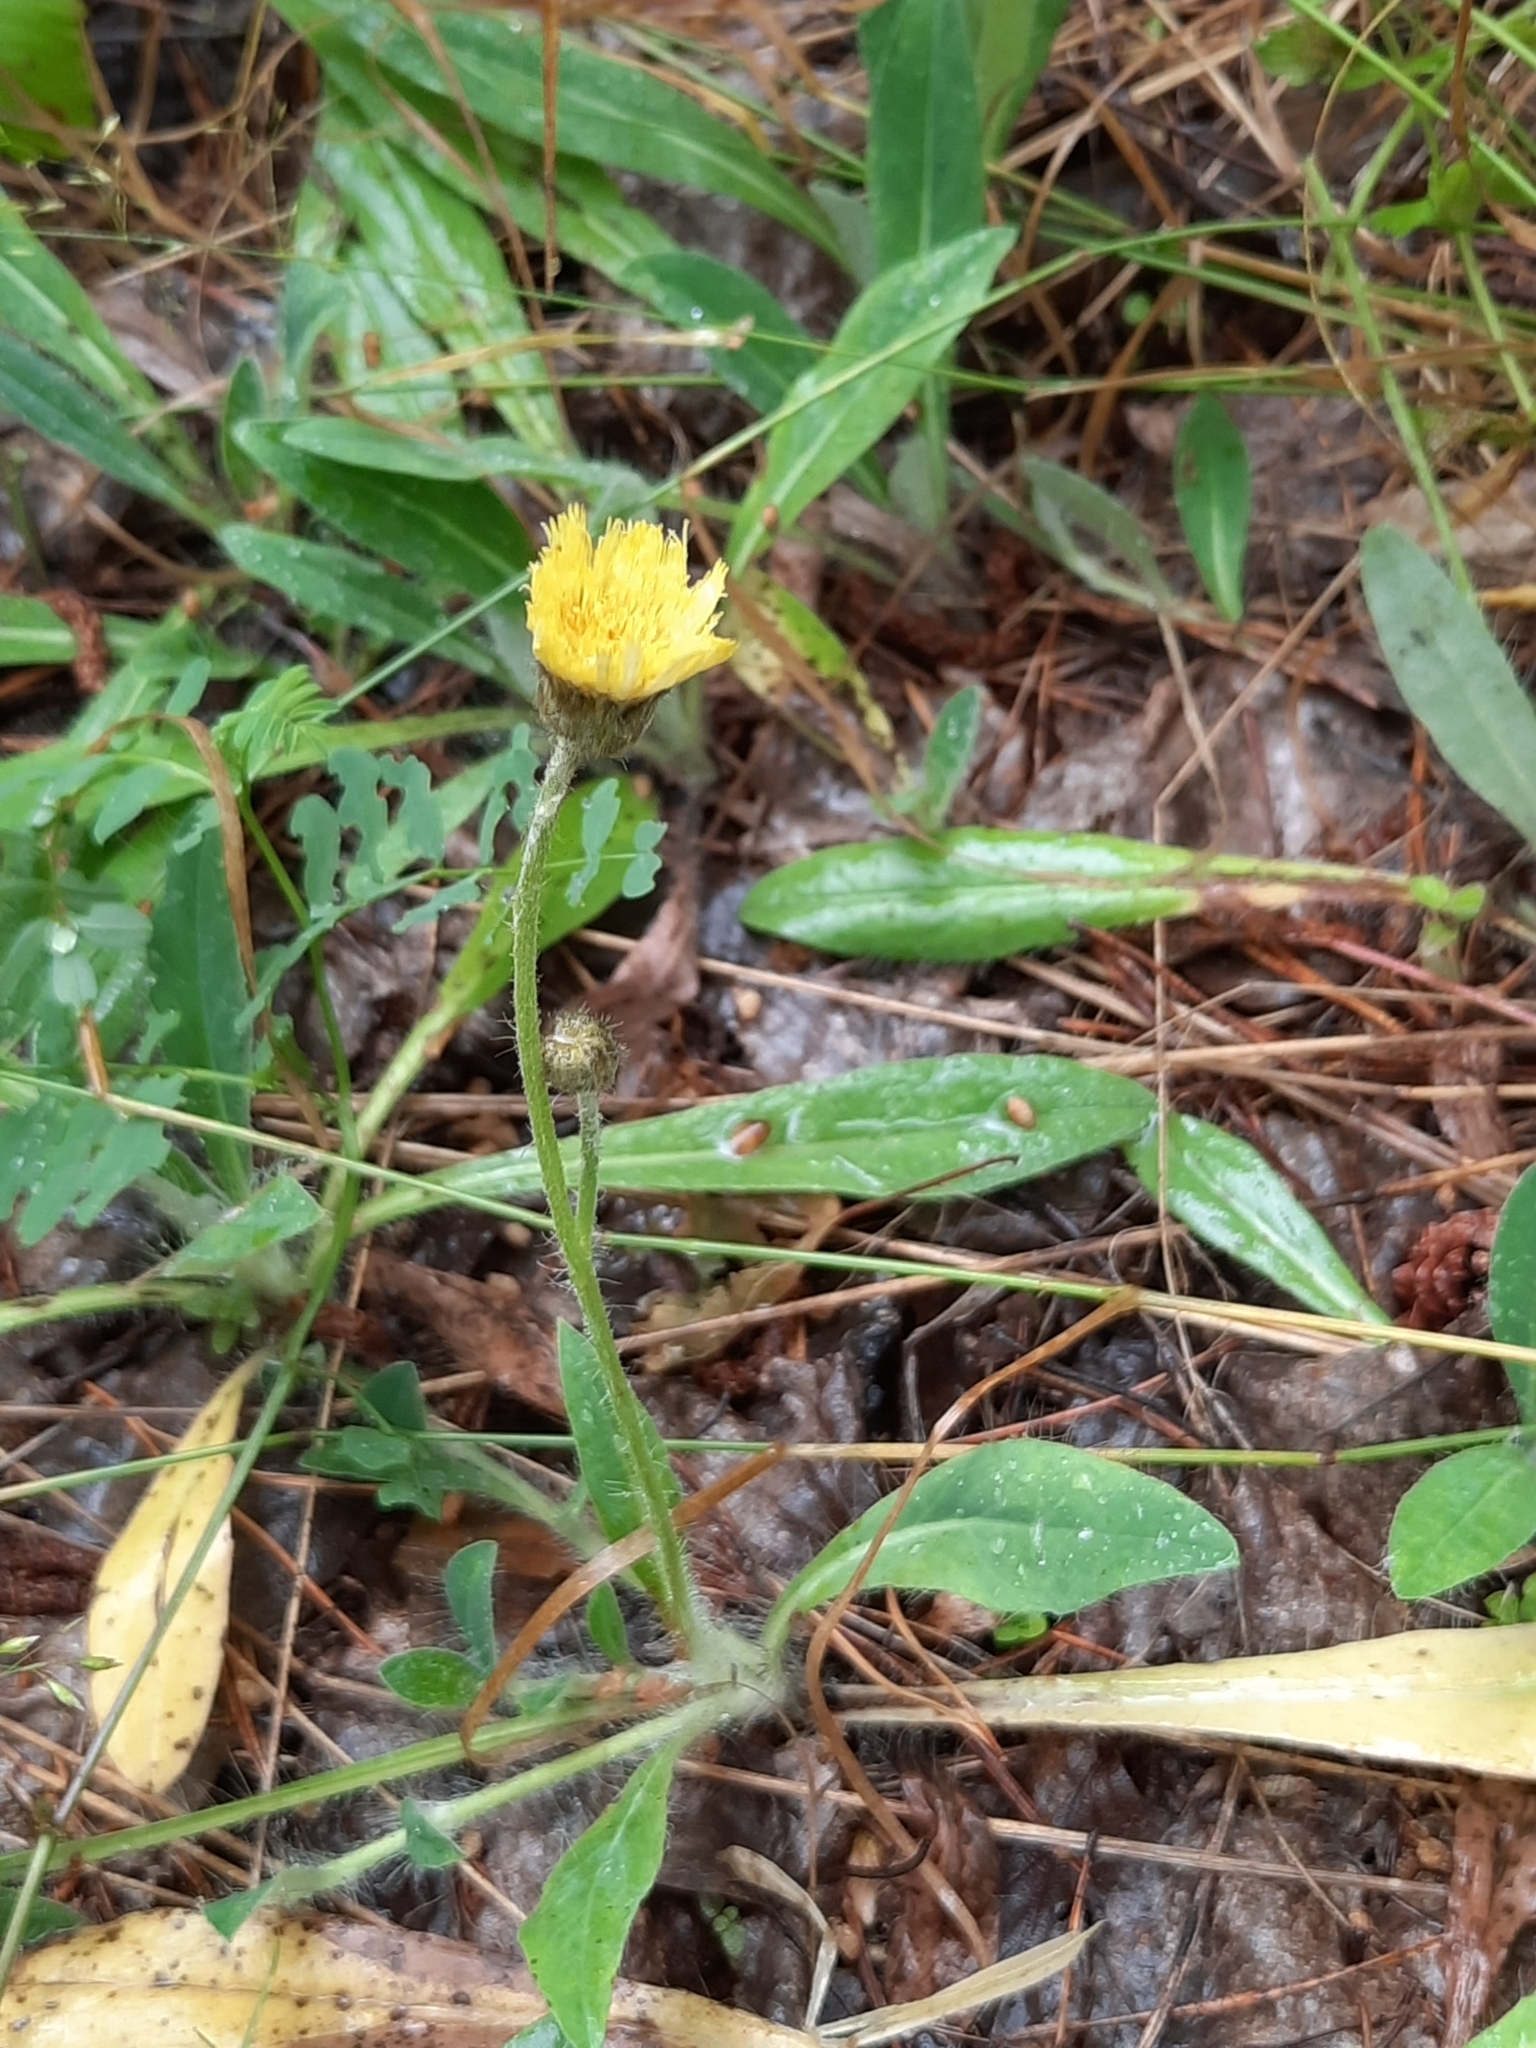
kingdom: Plantae
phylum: Tracheophyta
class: Magnoliopsida
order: Asterales
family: Asteraceae
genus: Pilosella
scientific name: Pilosella officinarum
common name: Mouse-ear hawkweed
